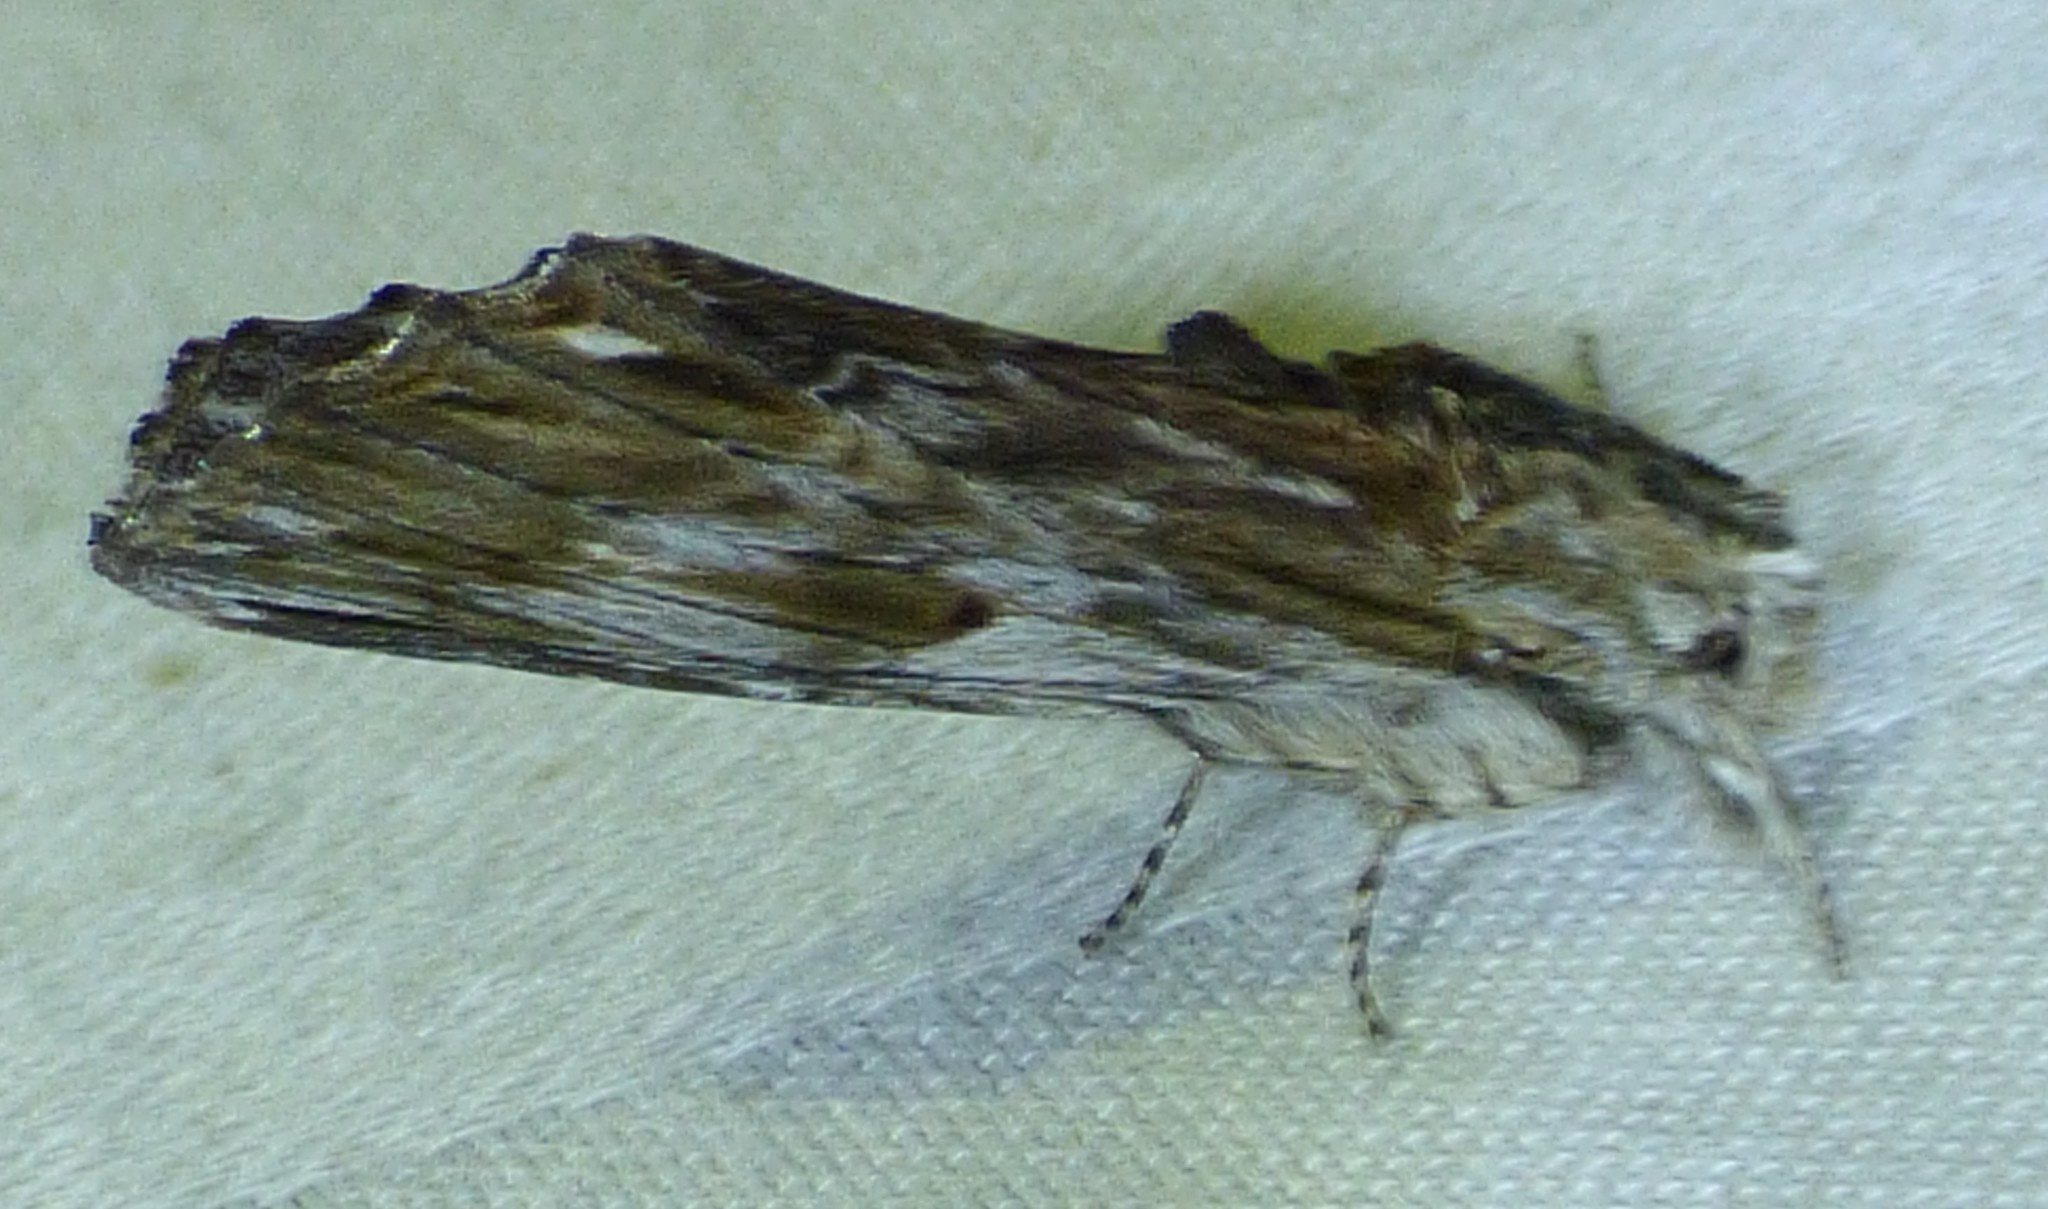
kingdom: Animalia
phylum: Arthropoda
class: Insecta
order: Lepidoptera
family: Notodontidae
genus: Oligocentria
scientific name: Oligocentria Ianassa lignicolor
